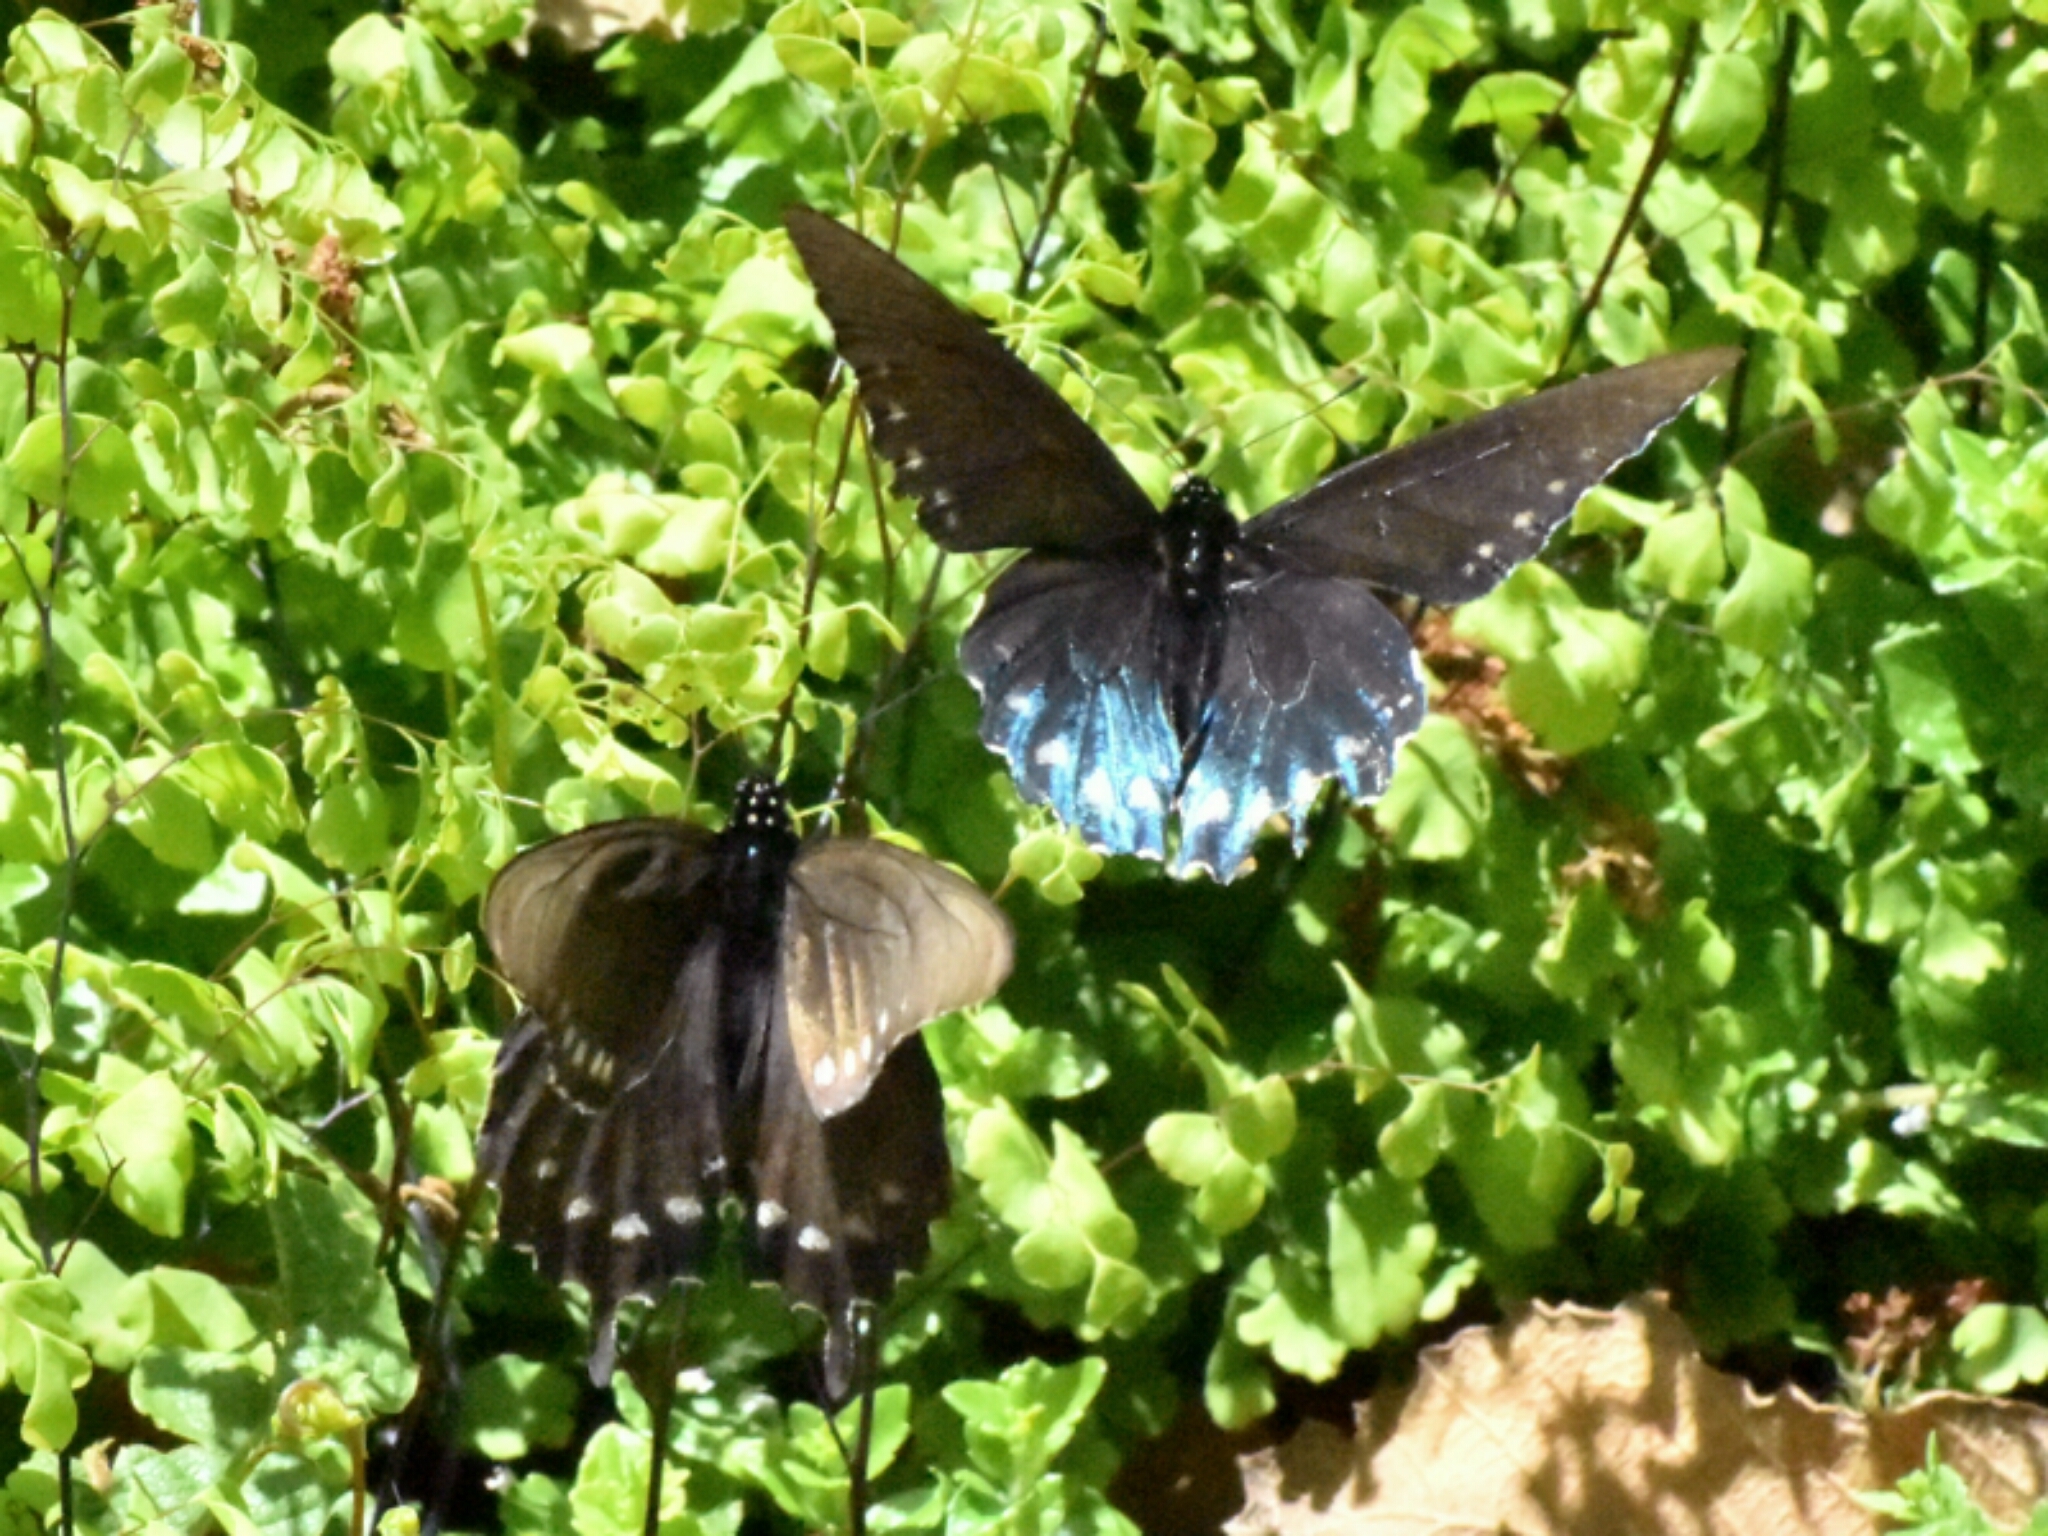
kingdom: Animalia
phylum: Arthropoda
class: Insecta
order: Lepidoptera
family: Papilionidae
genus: Battus
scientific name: Battus philenor
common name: Pipevine swallowtail
